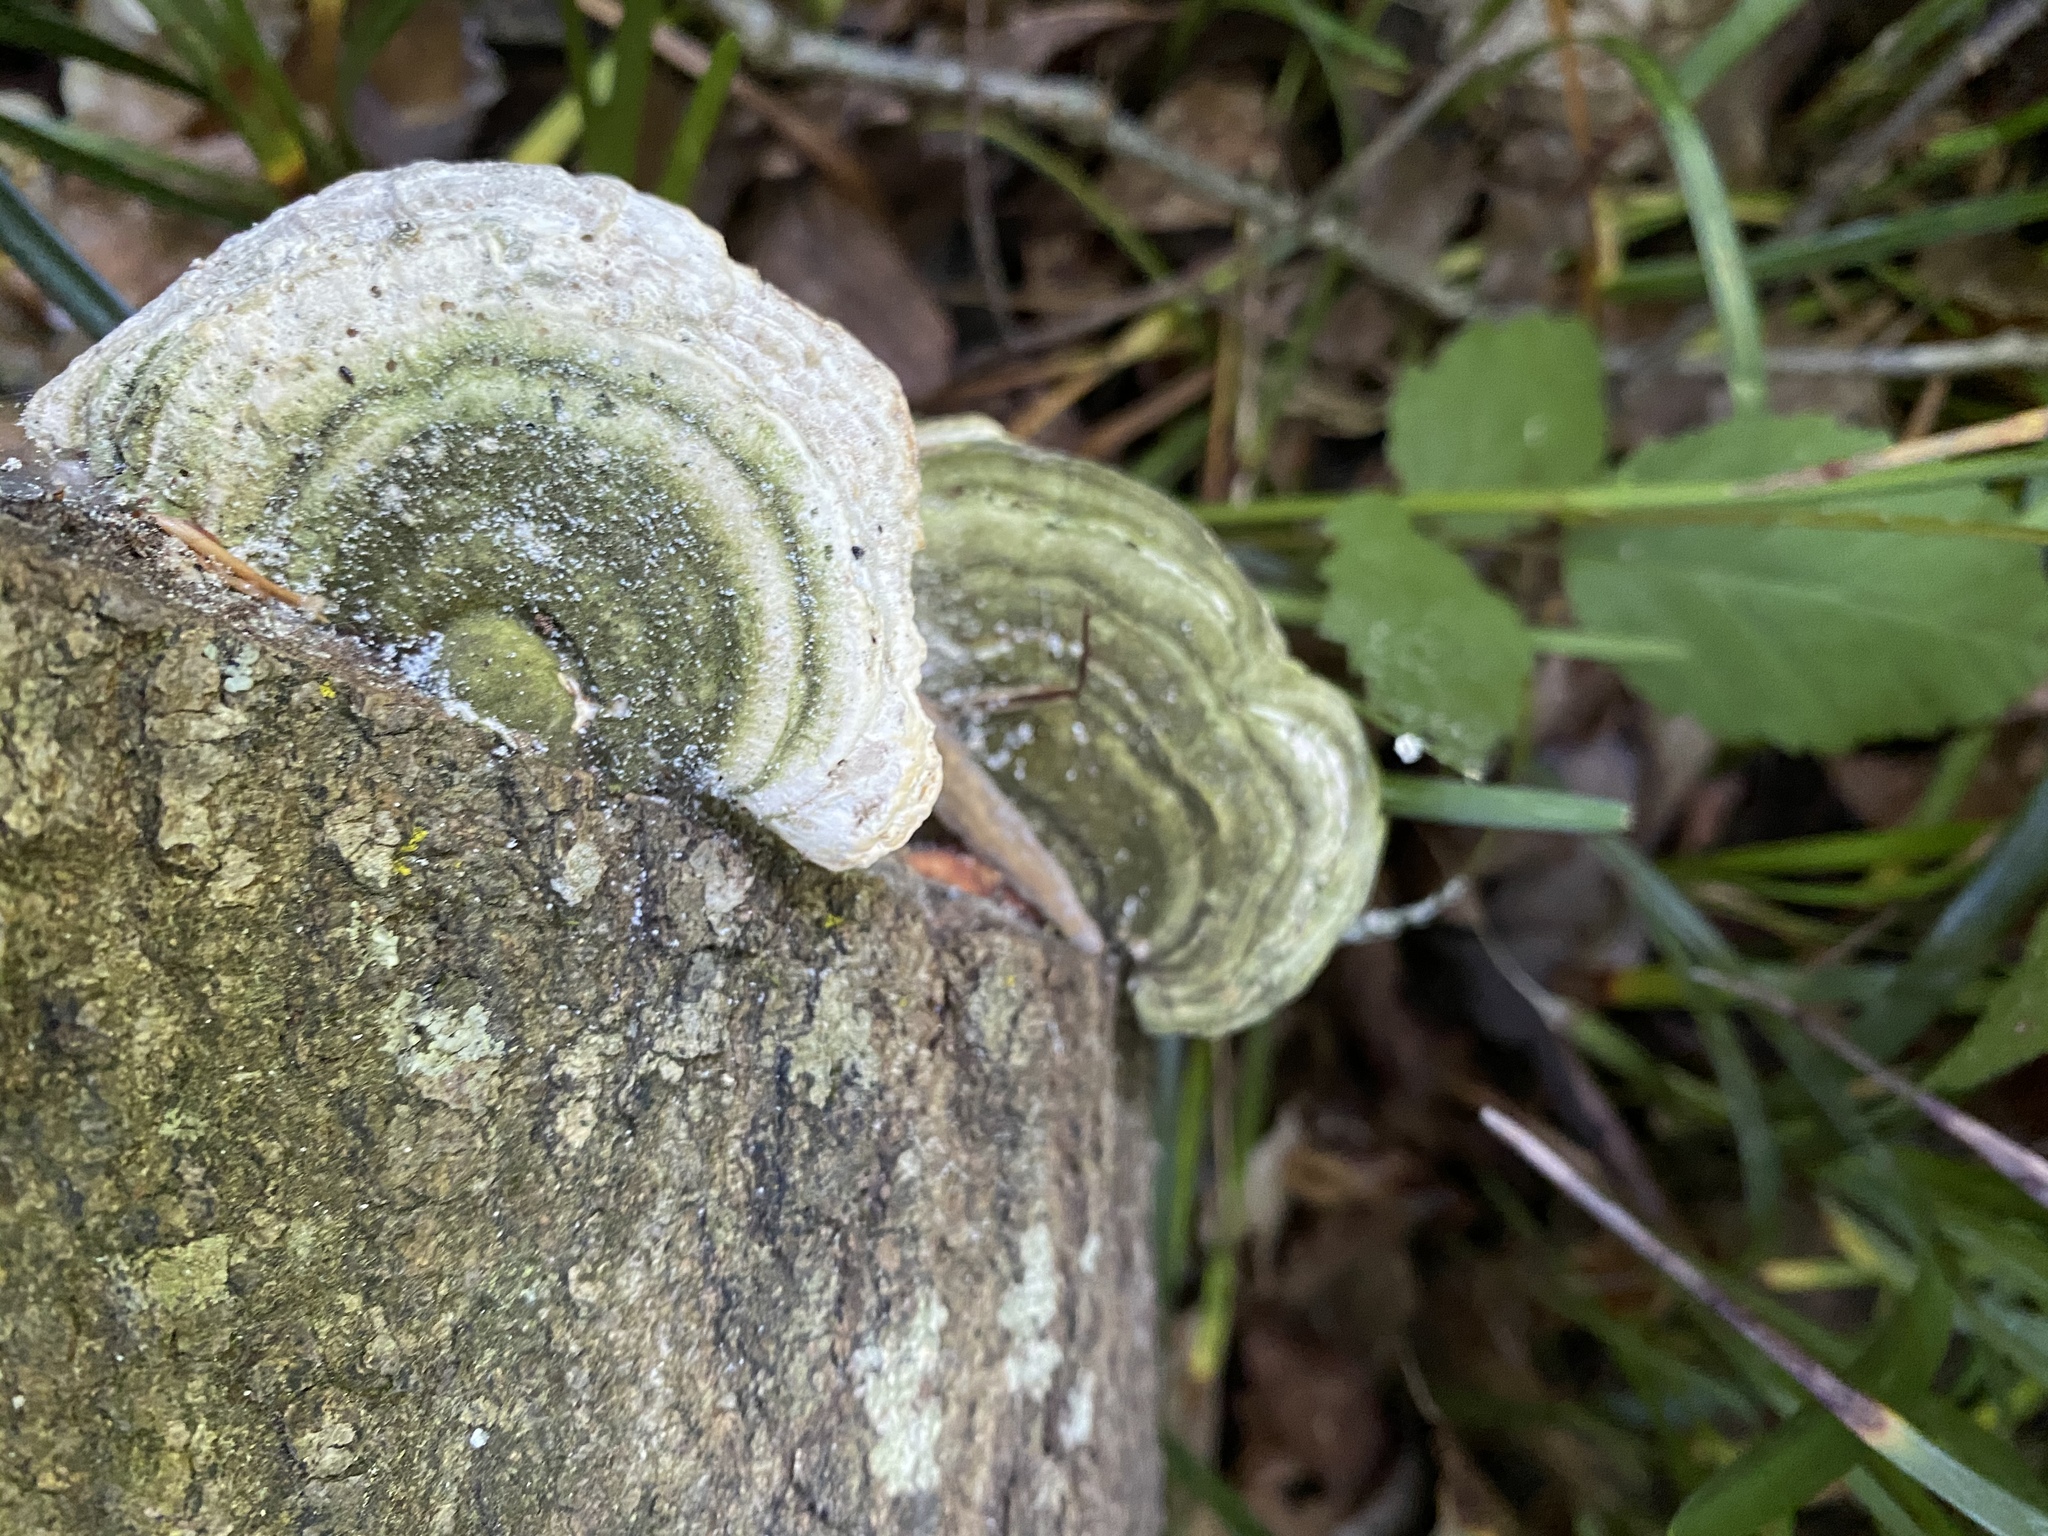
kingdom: Fungi
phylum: Basidiomycota
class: Agaricomycetes
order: Polyporales
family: Polyporaceae
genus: Trametes
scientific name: Trametes gibbosa
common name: Lumpy bracket
